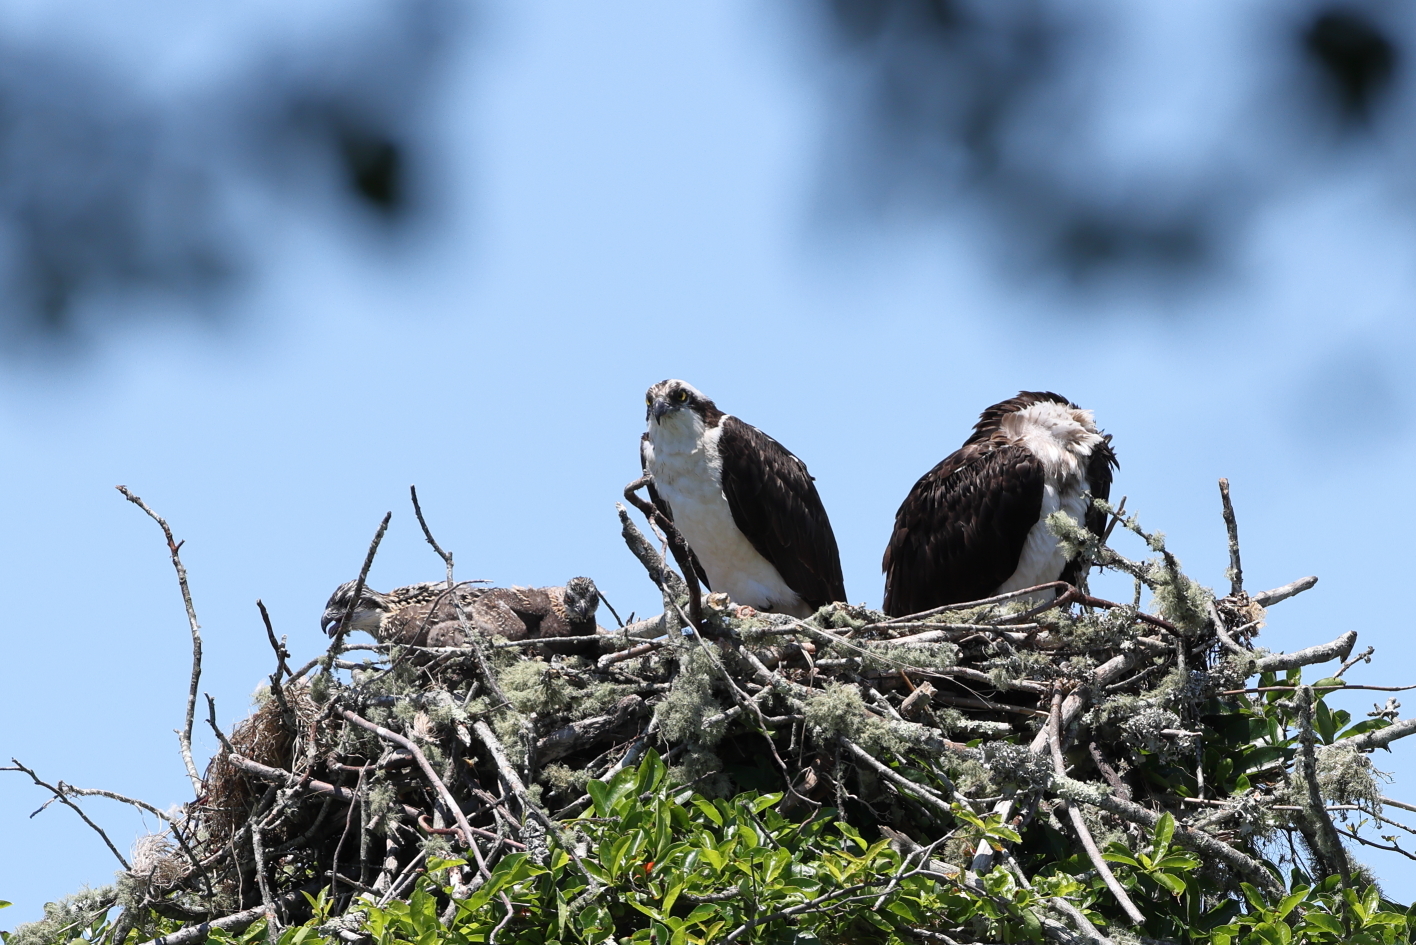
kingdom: Animalia
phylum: Chordata
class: Aves
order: Accipitriformes
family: Pandionidae
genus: Pandion
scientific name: Pandion haliaetus
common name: Osprey
